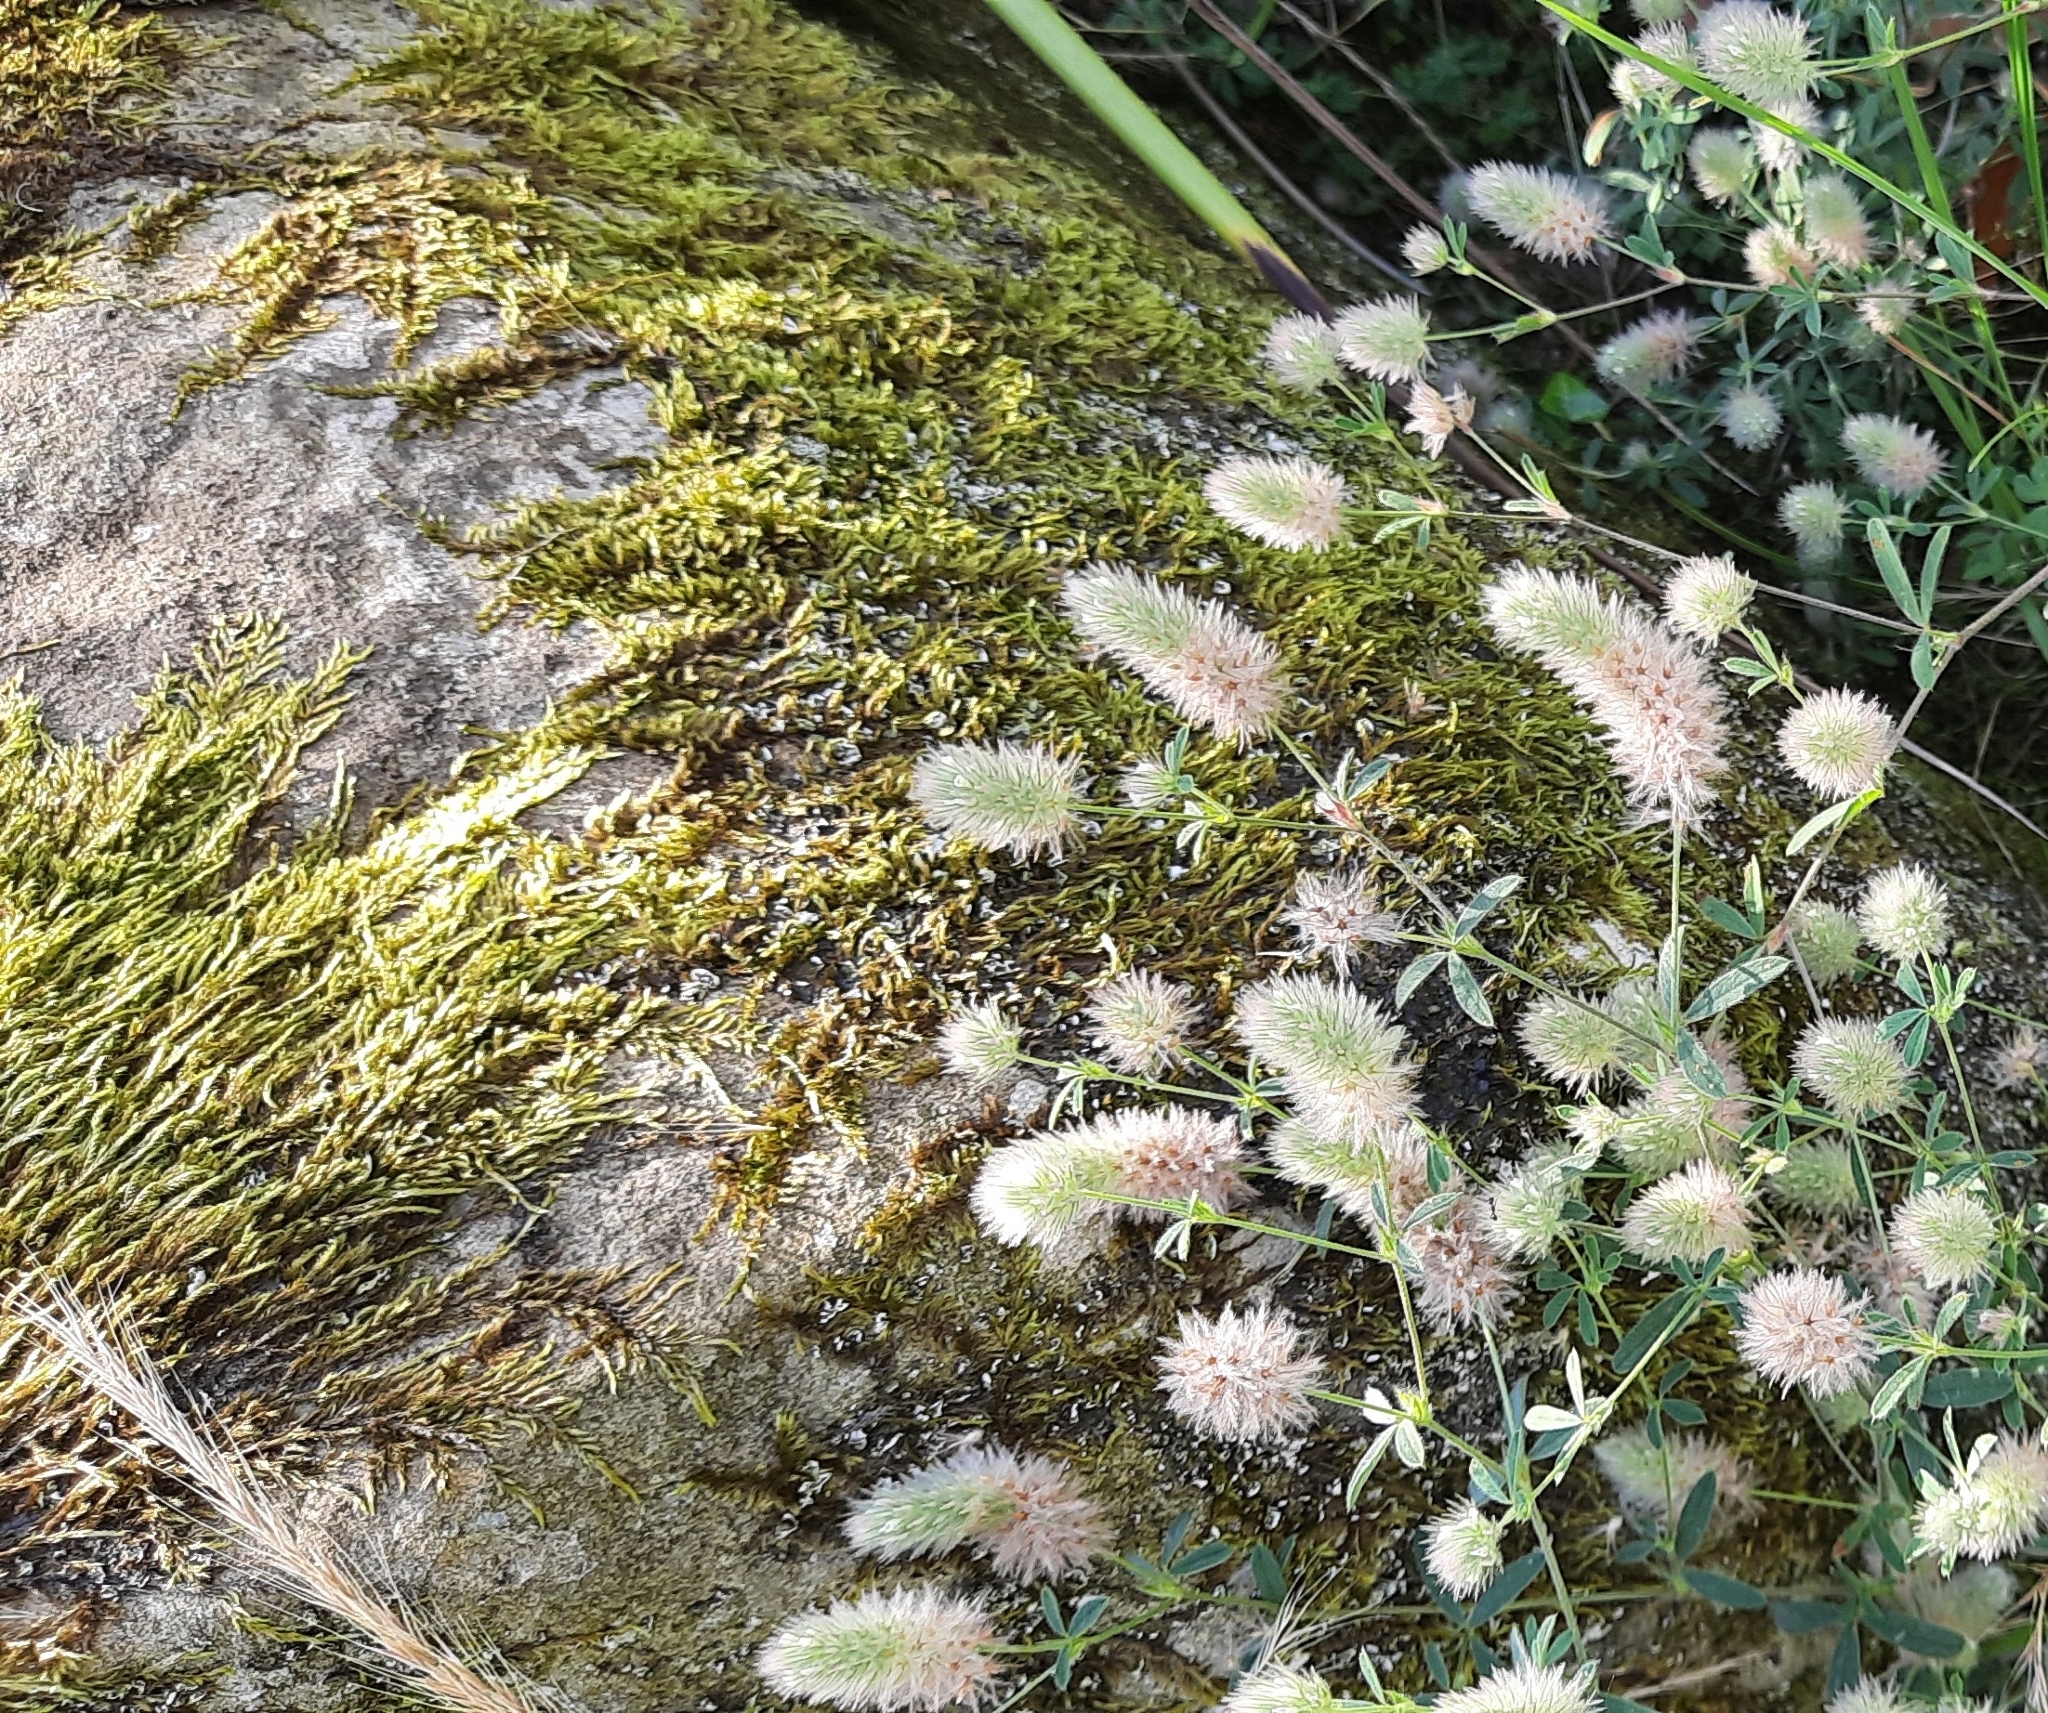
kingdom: Plantae
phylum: Tracheophyta
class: Magnoliopsida
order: Fabales
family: Fabaceae
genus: Trifolium
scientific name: Trifolium arvense
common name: Hare's-foot clover
